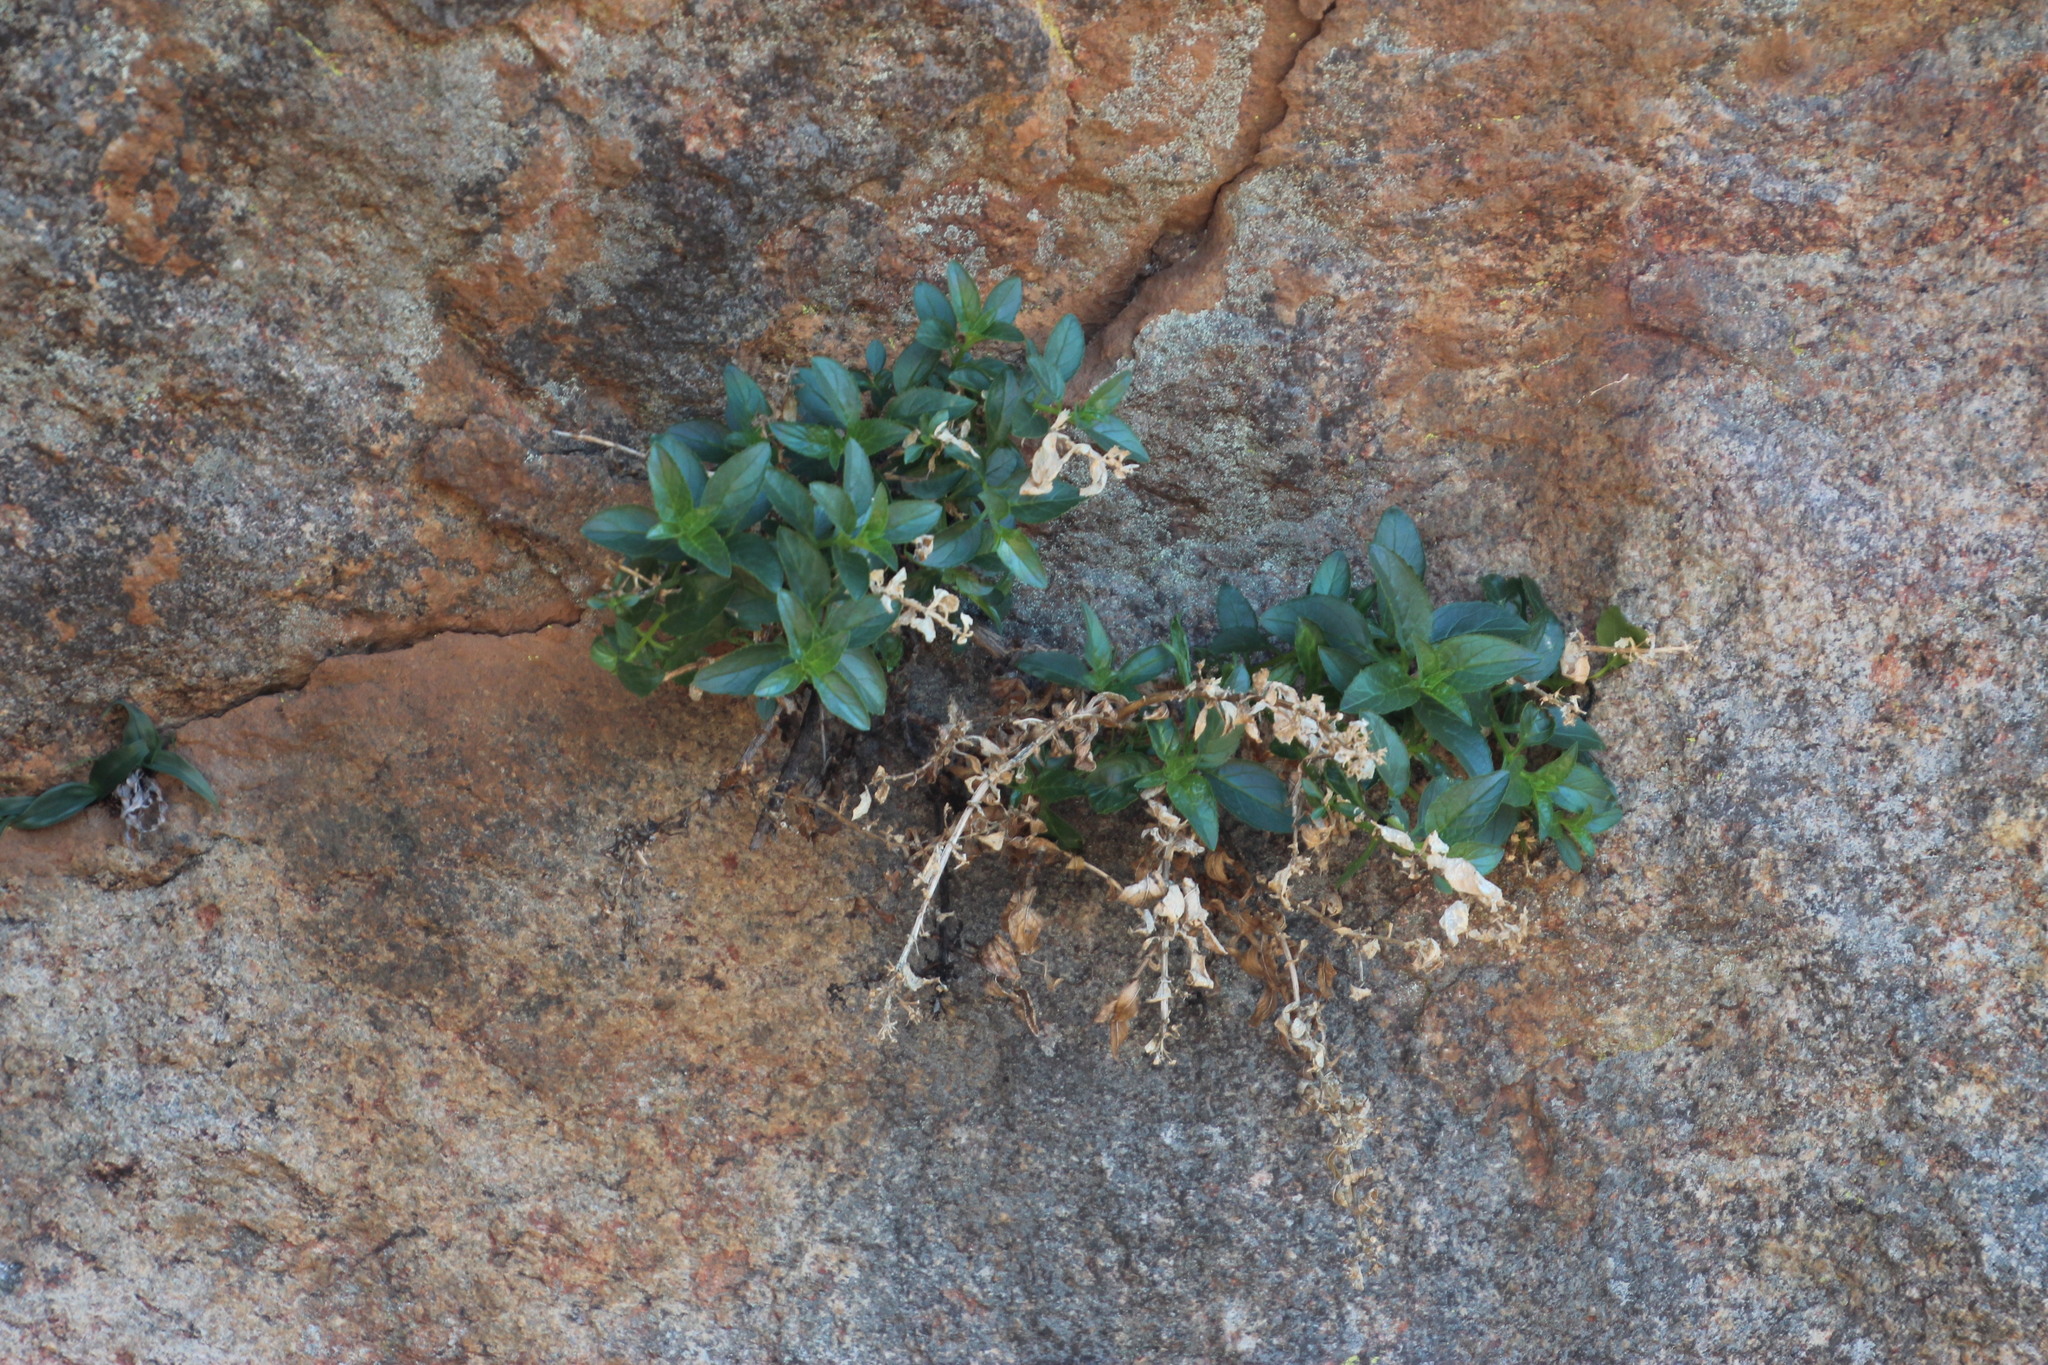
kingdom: Plantae
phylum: Tracheophyta
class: Magnoliopsida
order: Lamiales
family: Scrophulariaceae
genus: Teedia
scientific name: Teedia lucida
